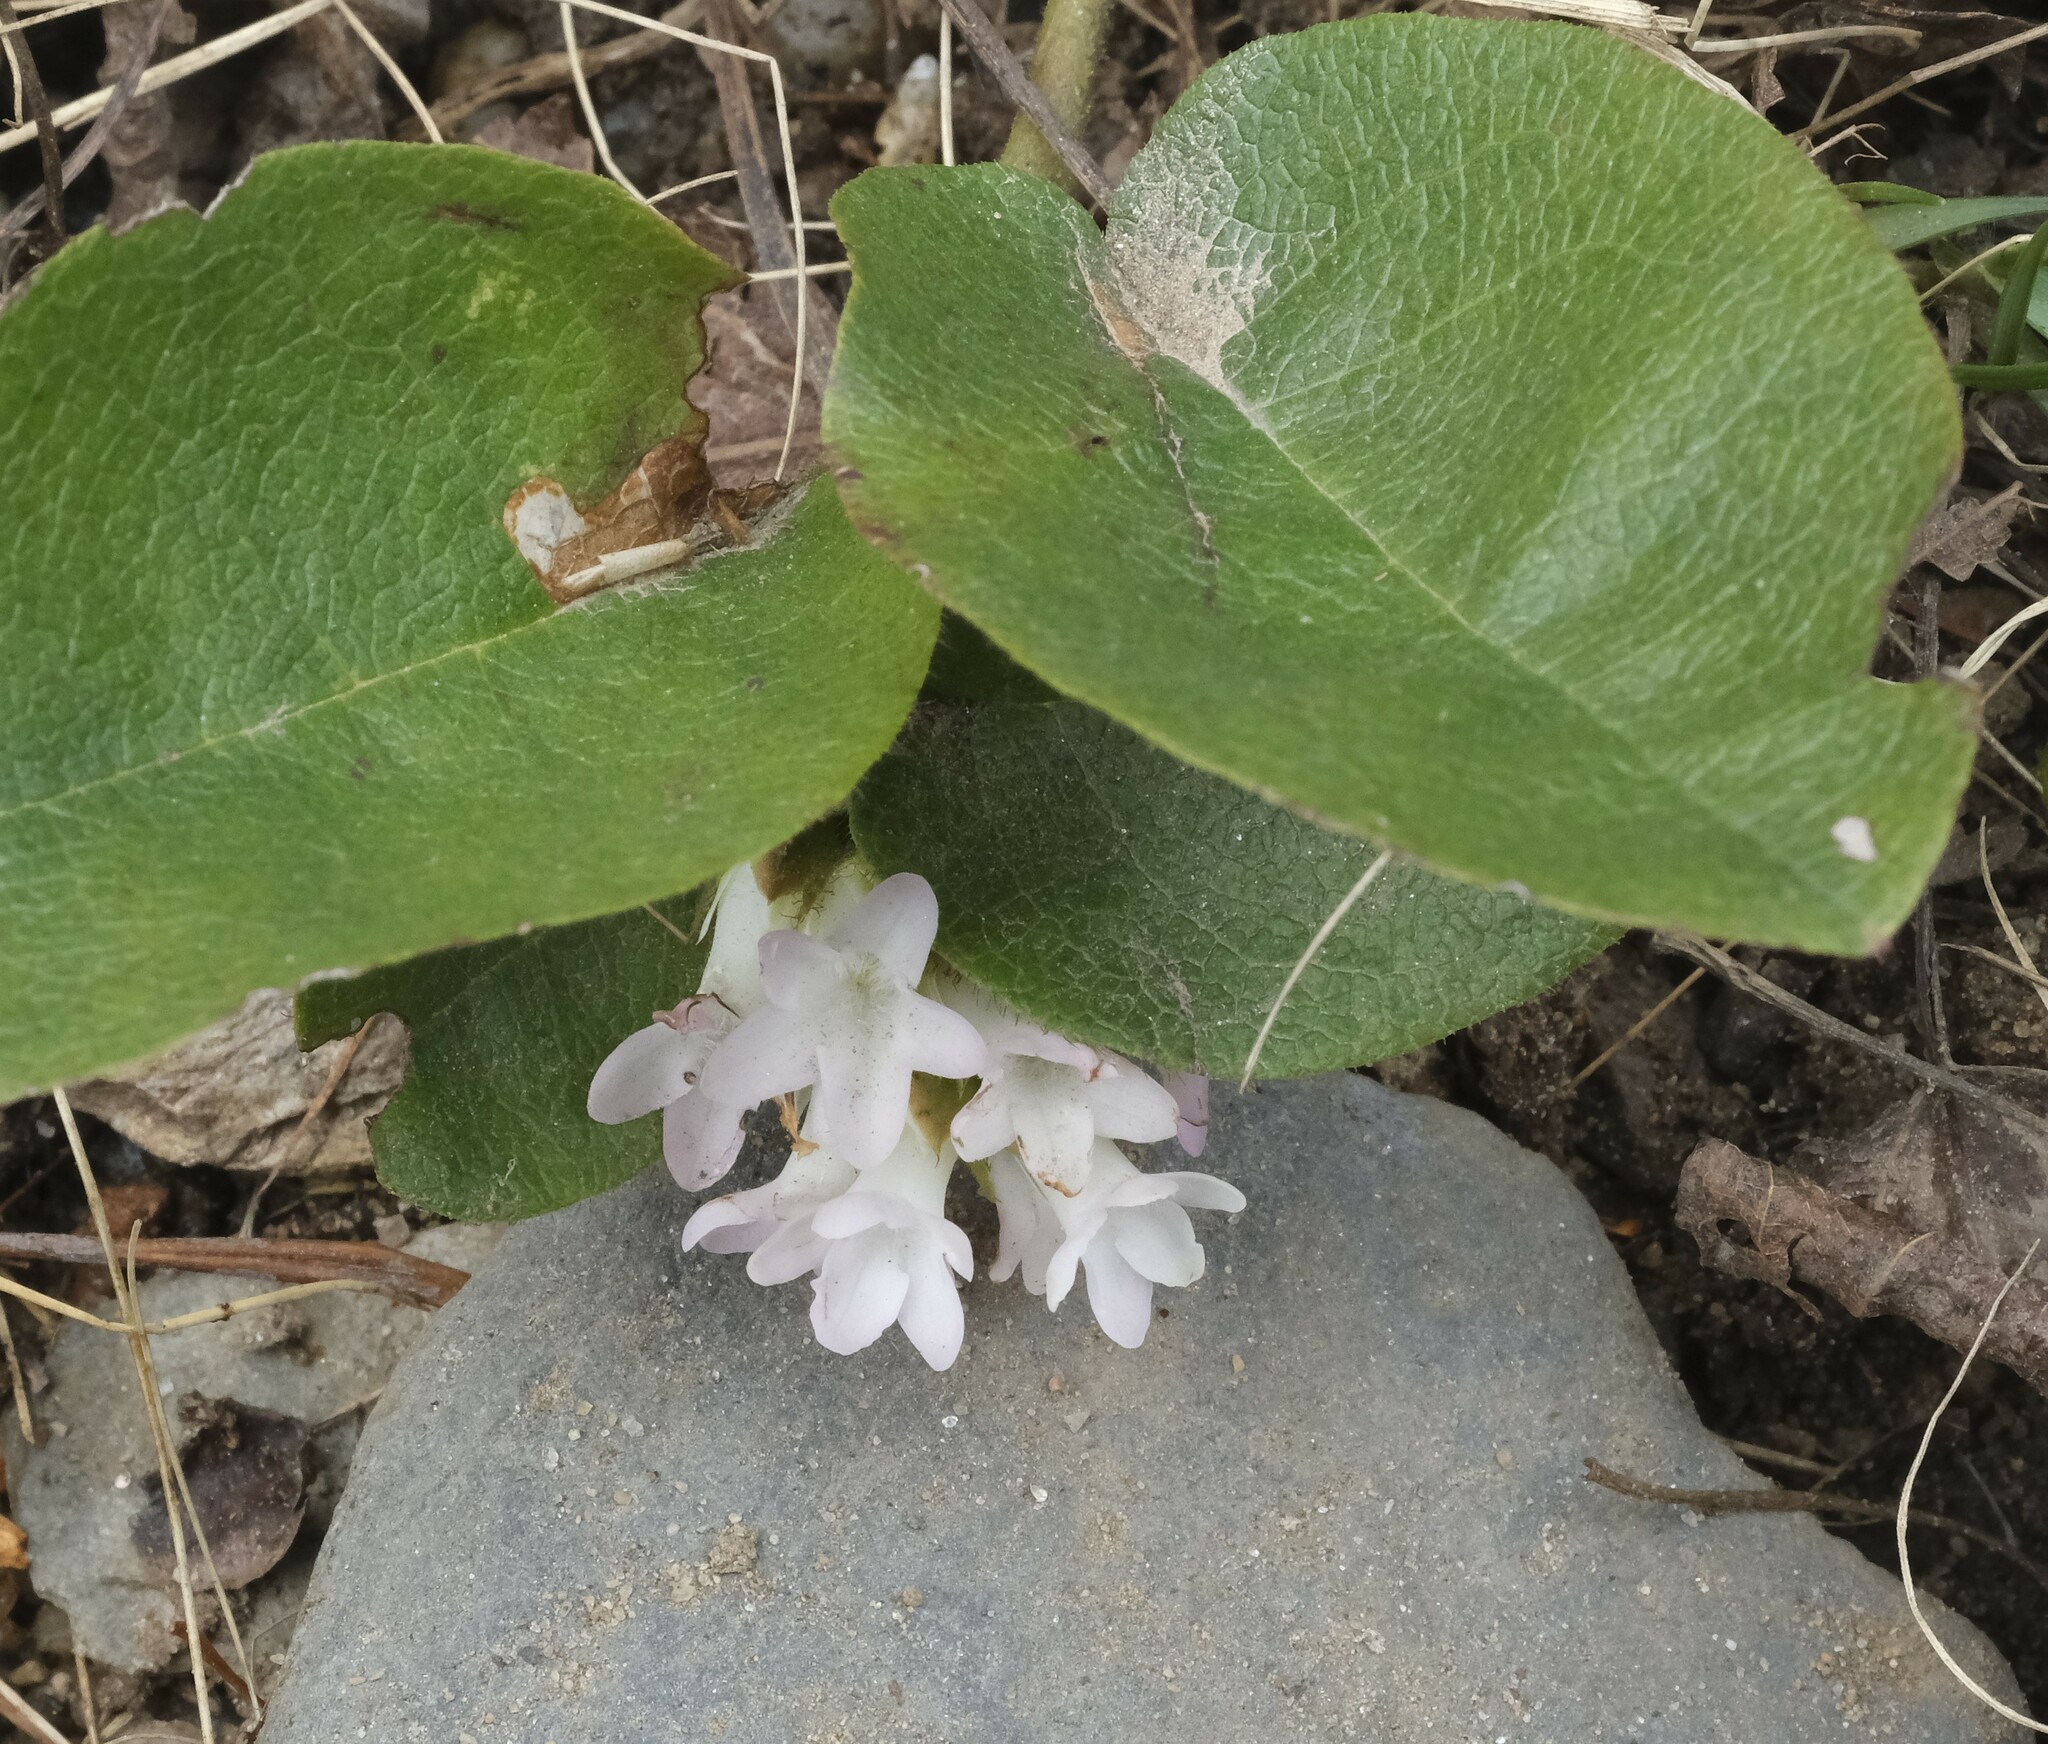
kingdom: Plantae
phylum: Tracheophyta
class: Magnoliopsida
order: Ericales
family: Ericaceae
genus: Epigaea
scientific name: Epigaea repens
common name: Gravelroot
